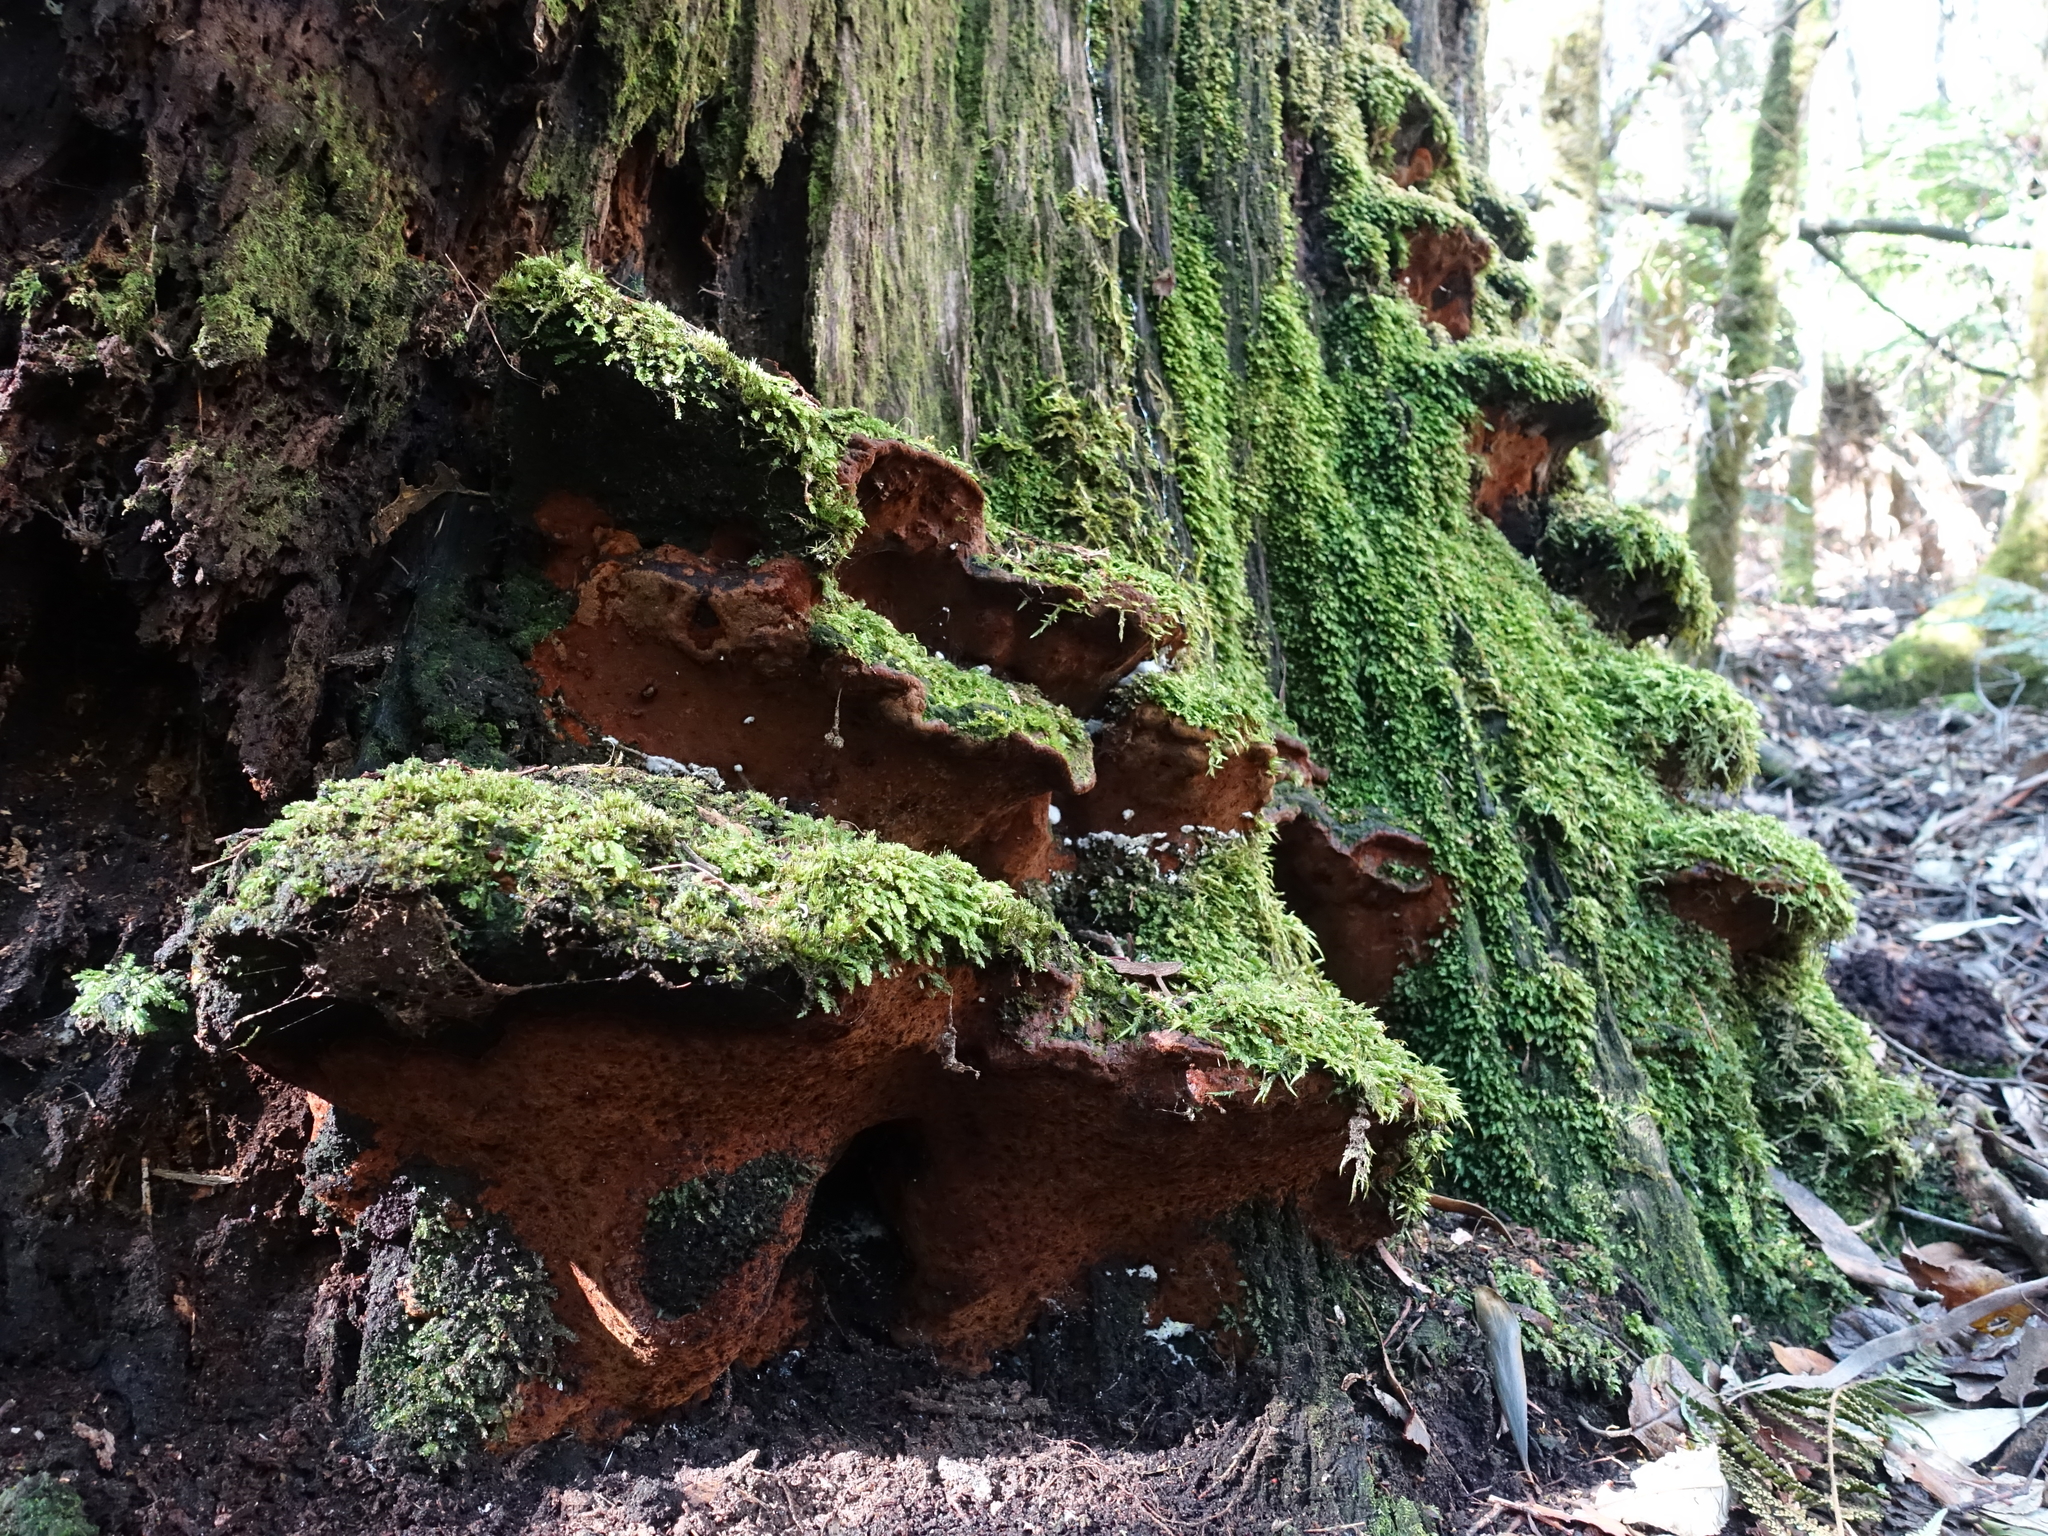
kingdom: Fungi
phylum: Basidiomycota
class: Agaricomycetes
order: Hymenochaetales
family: Hymenochaetaceae
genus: Fuscoporia
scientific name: Fuscoporia wahlbergii
